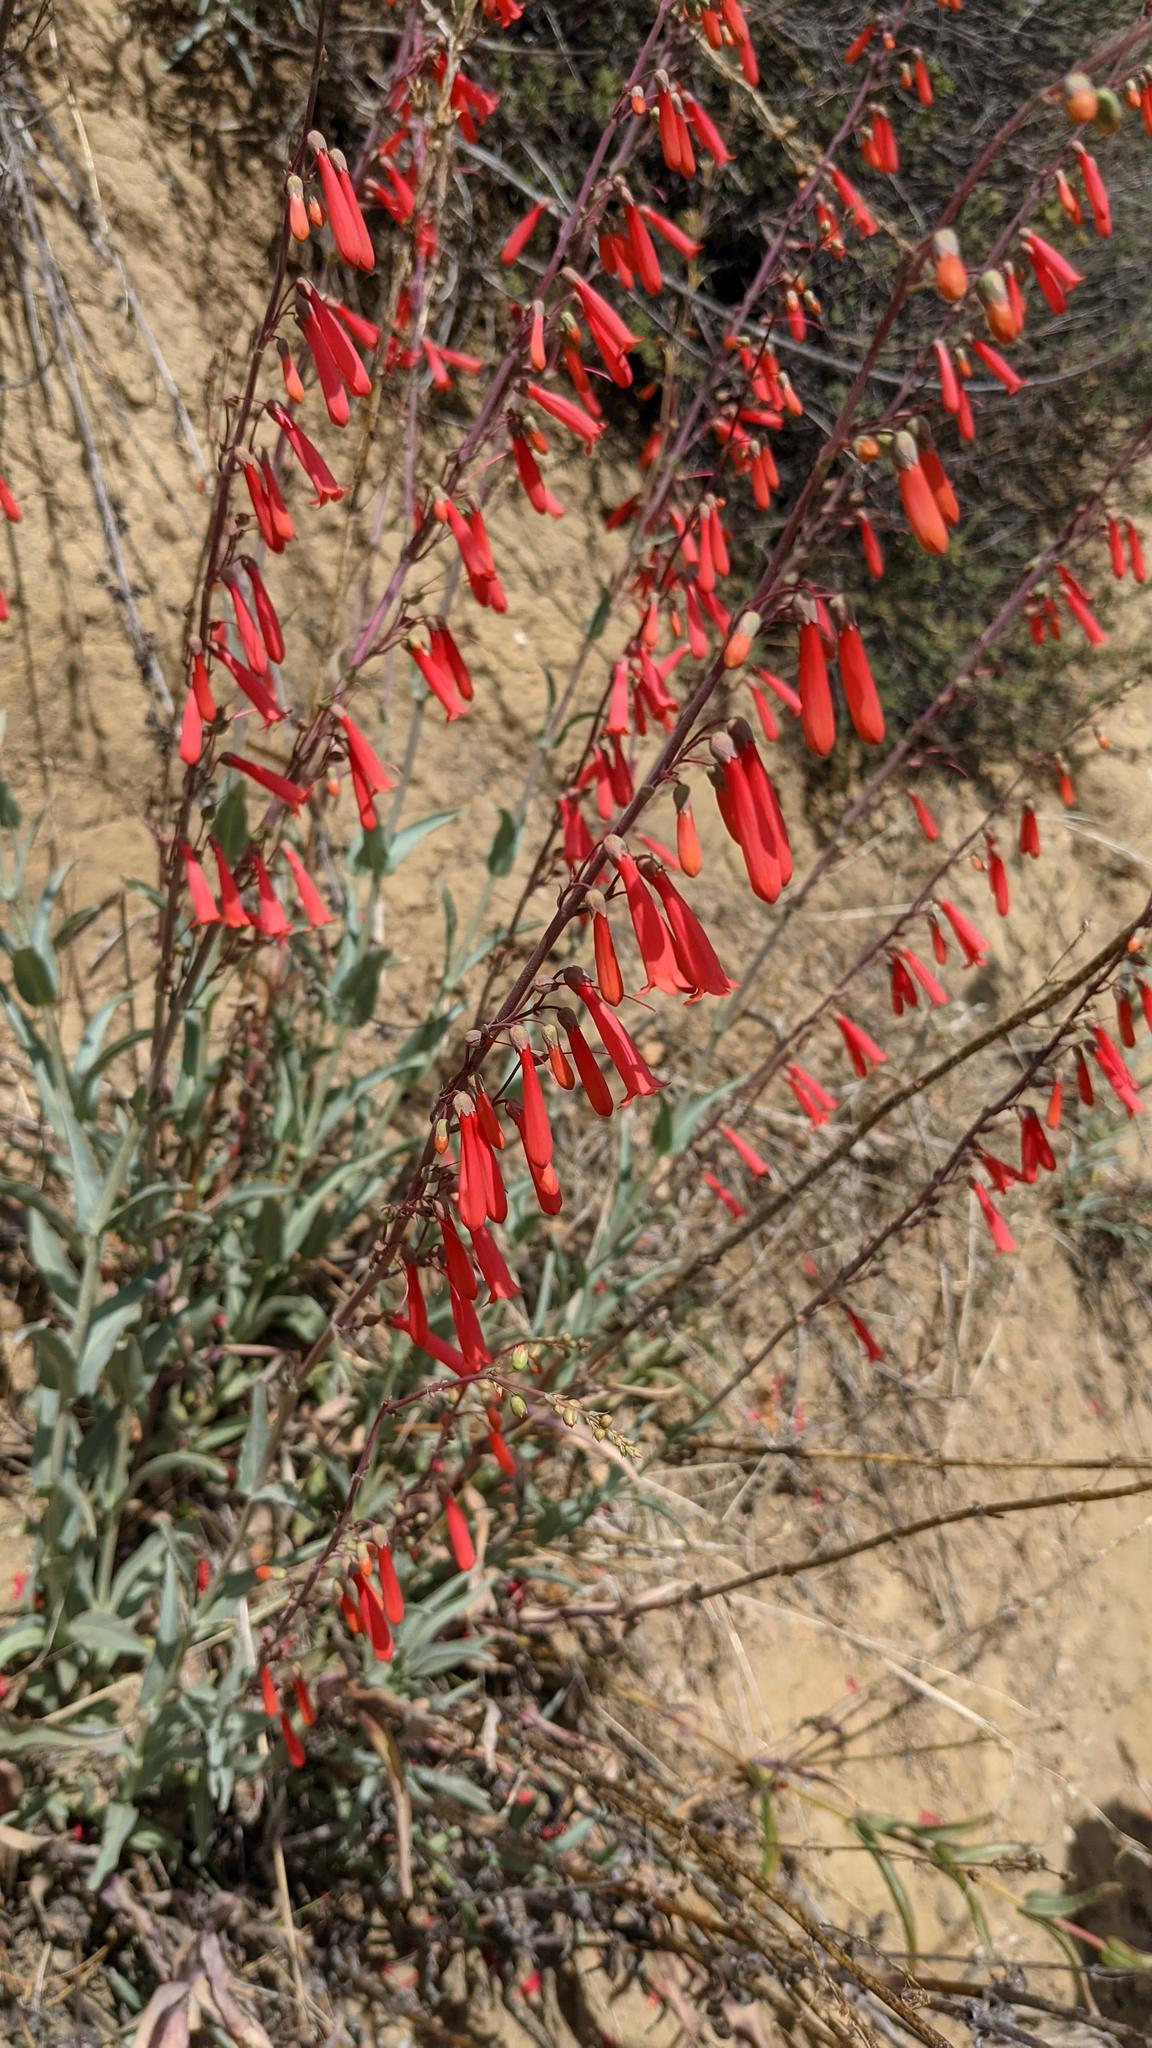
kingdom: Plantae
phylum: Tracheophyta
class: Magnoliopsida
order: Lamiales
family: Plantaginaceae
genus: Penstemon
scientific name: Penstemon centranthifolius
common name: Scarlet bugler
